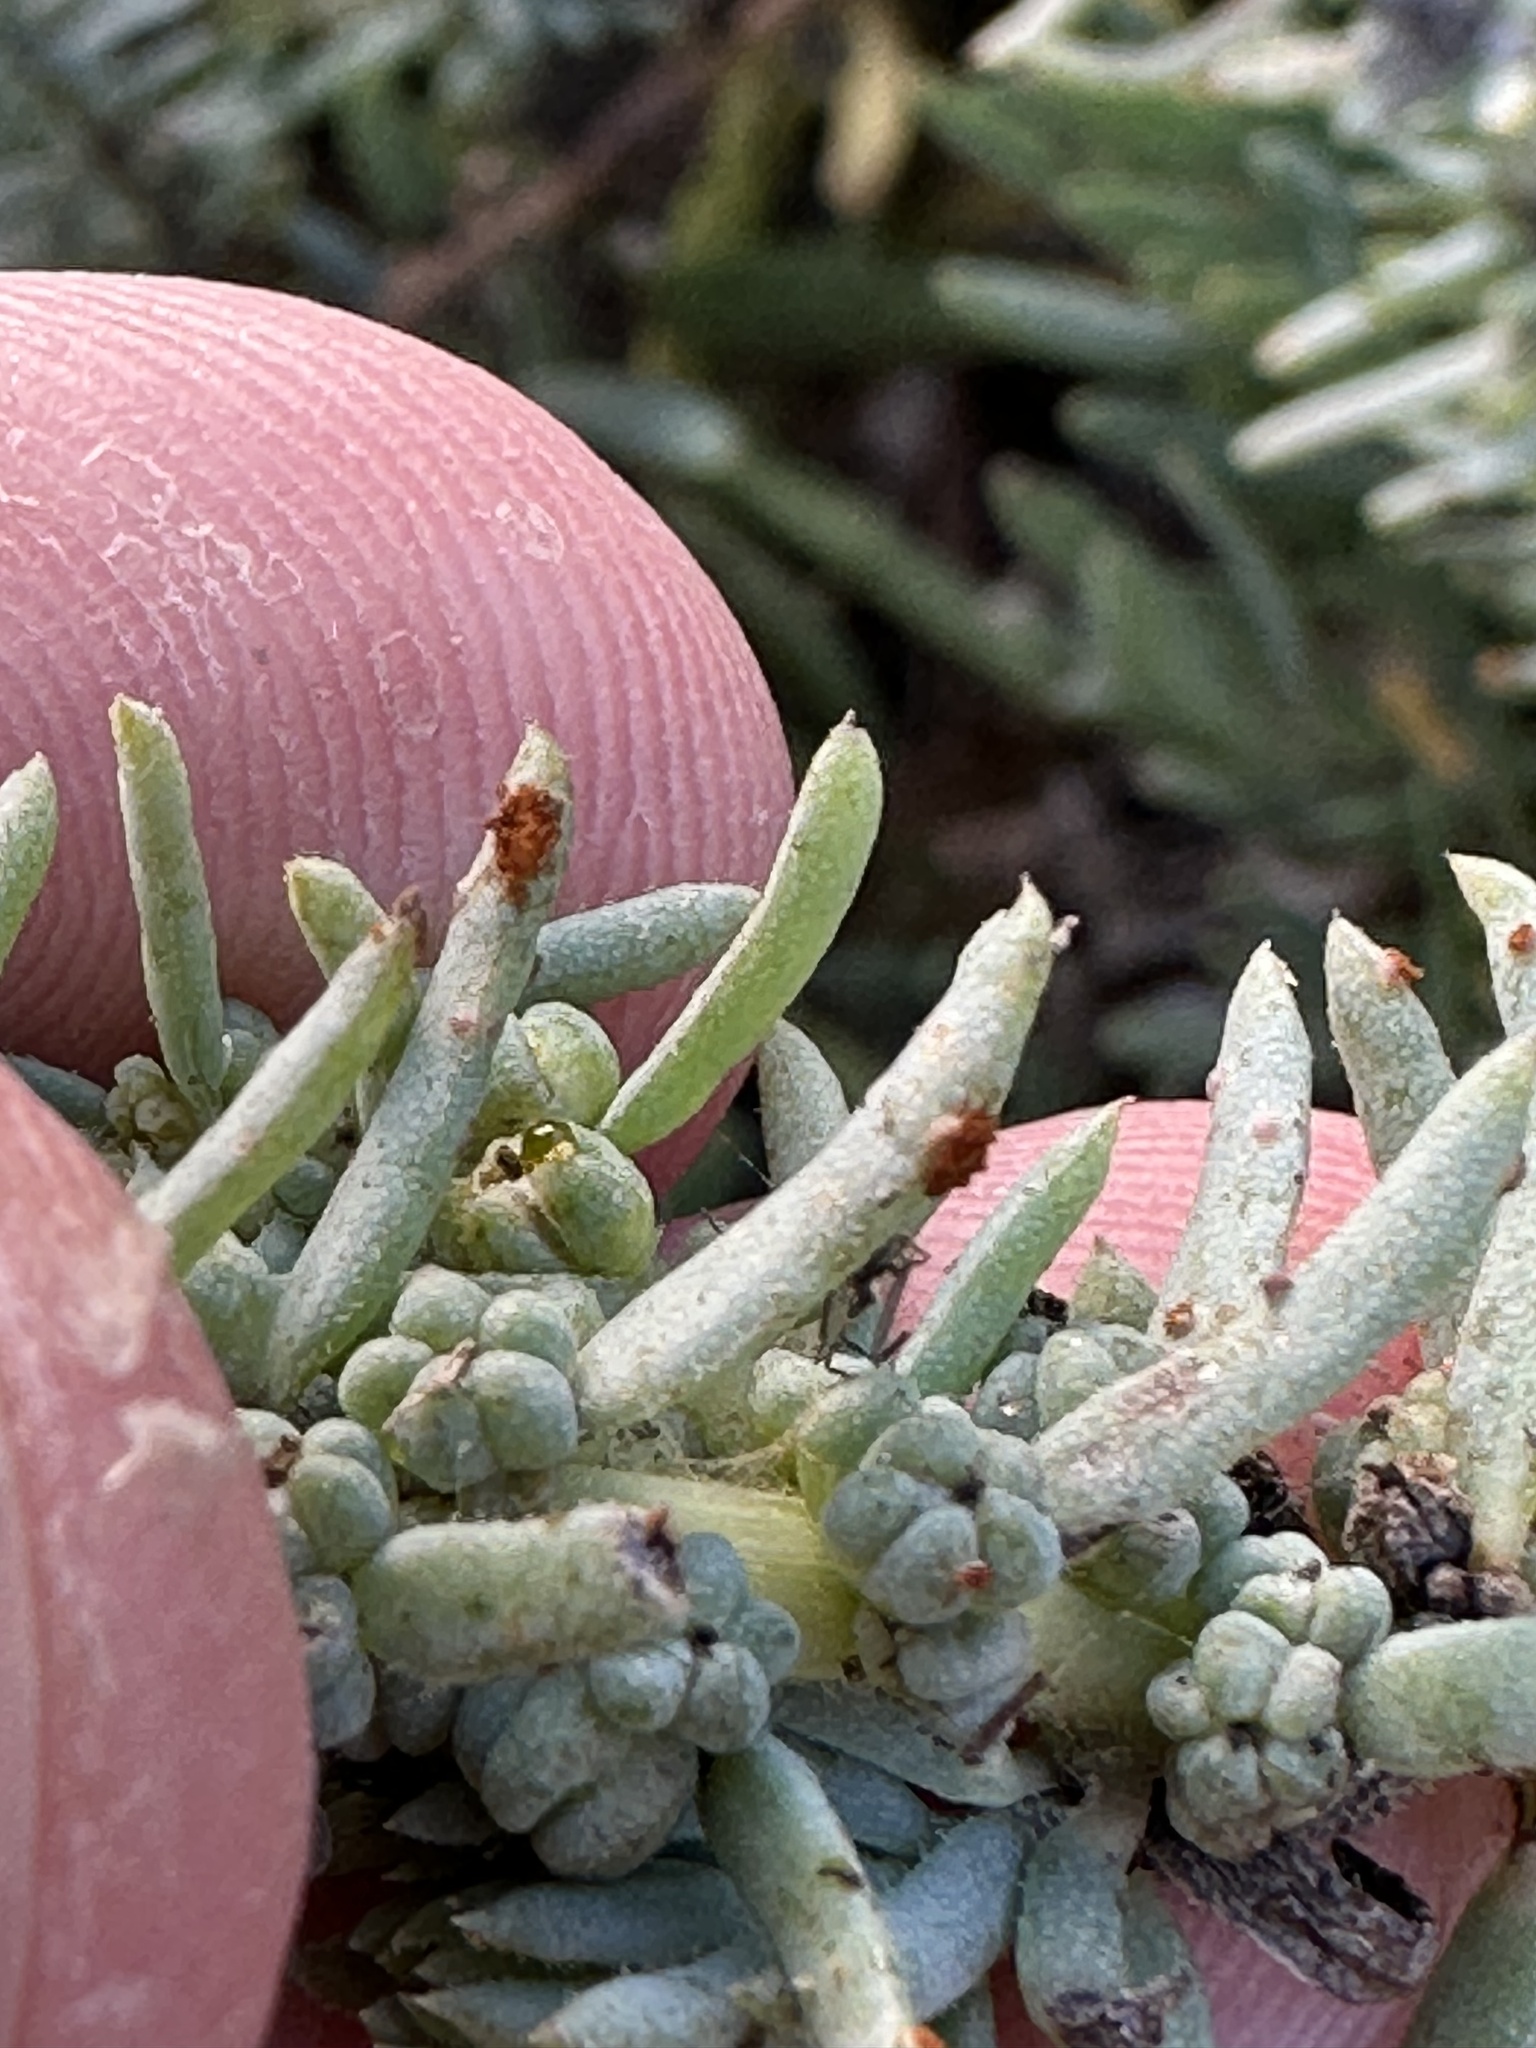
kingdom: Fungi
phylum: Basidiomycota
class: Pucciniomycetes
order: Pucciniales
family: Pucciniaceae
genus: Uromyces
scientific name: Uromyces rebeccae
